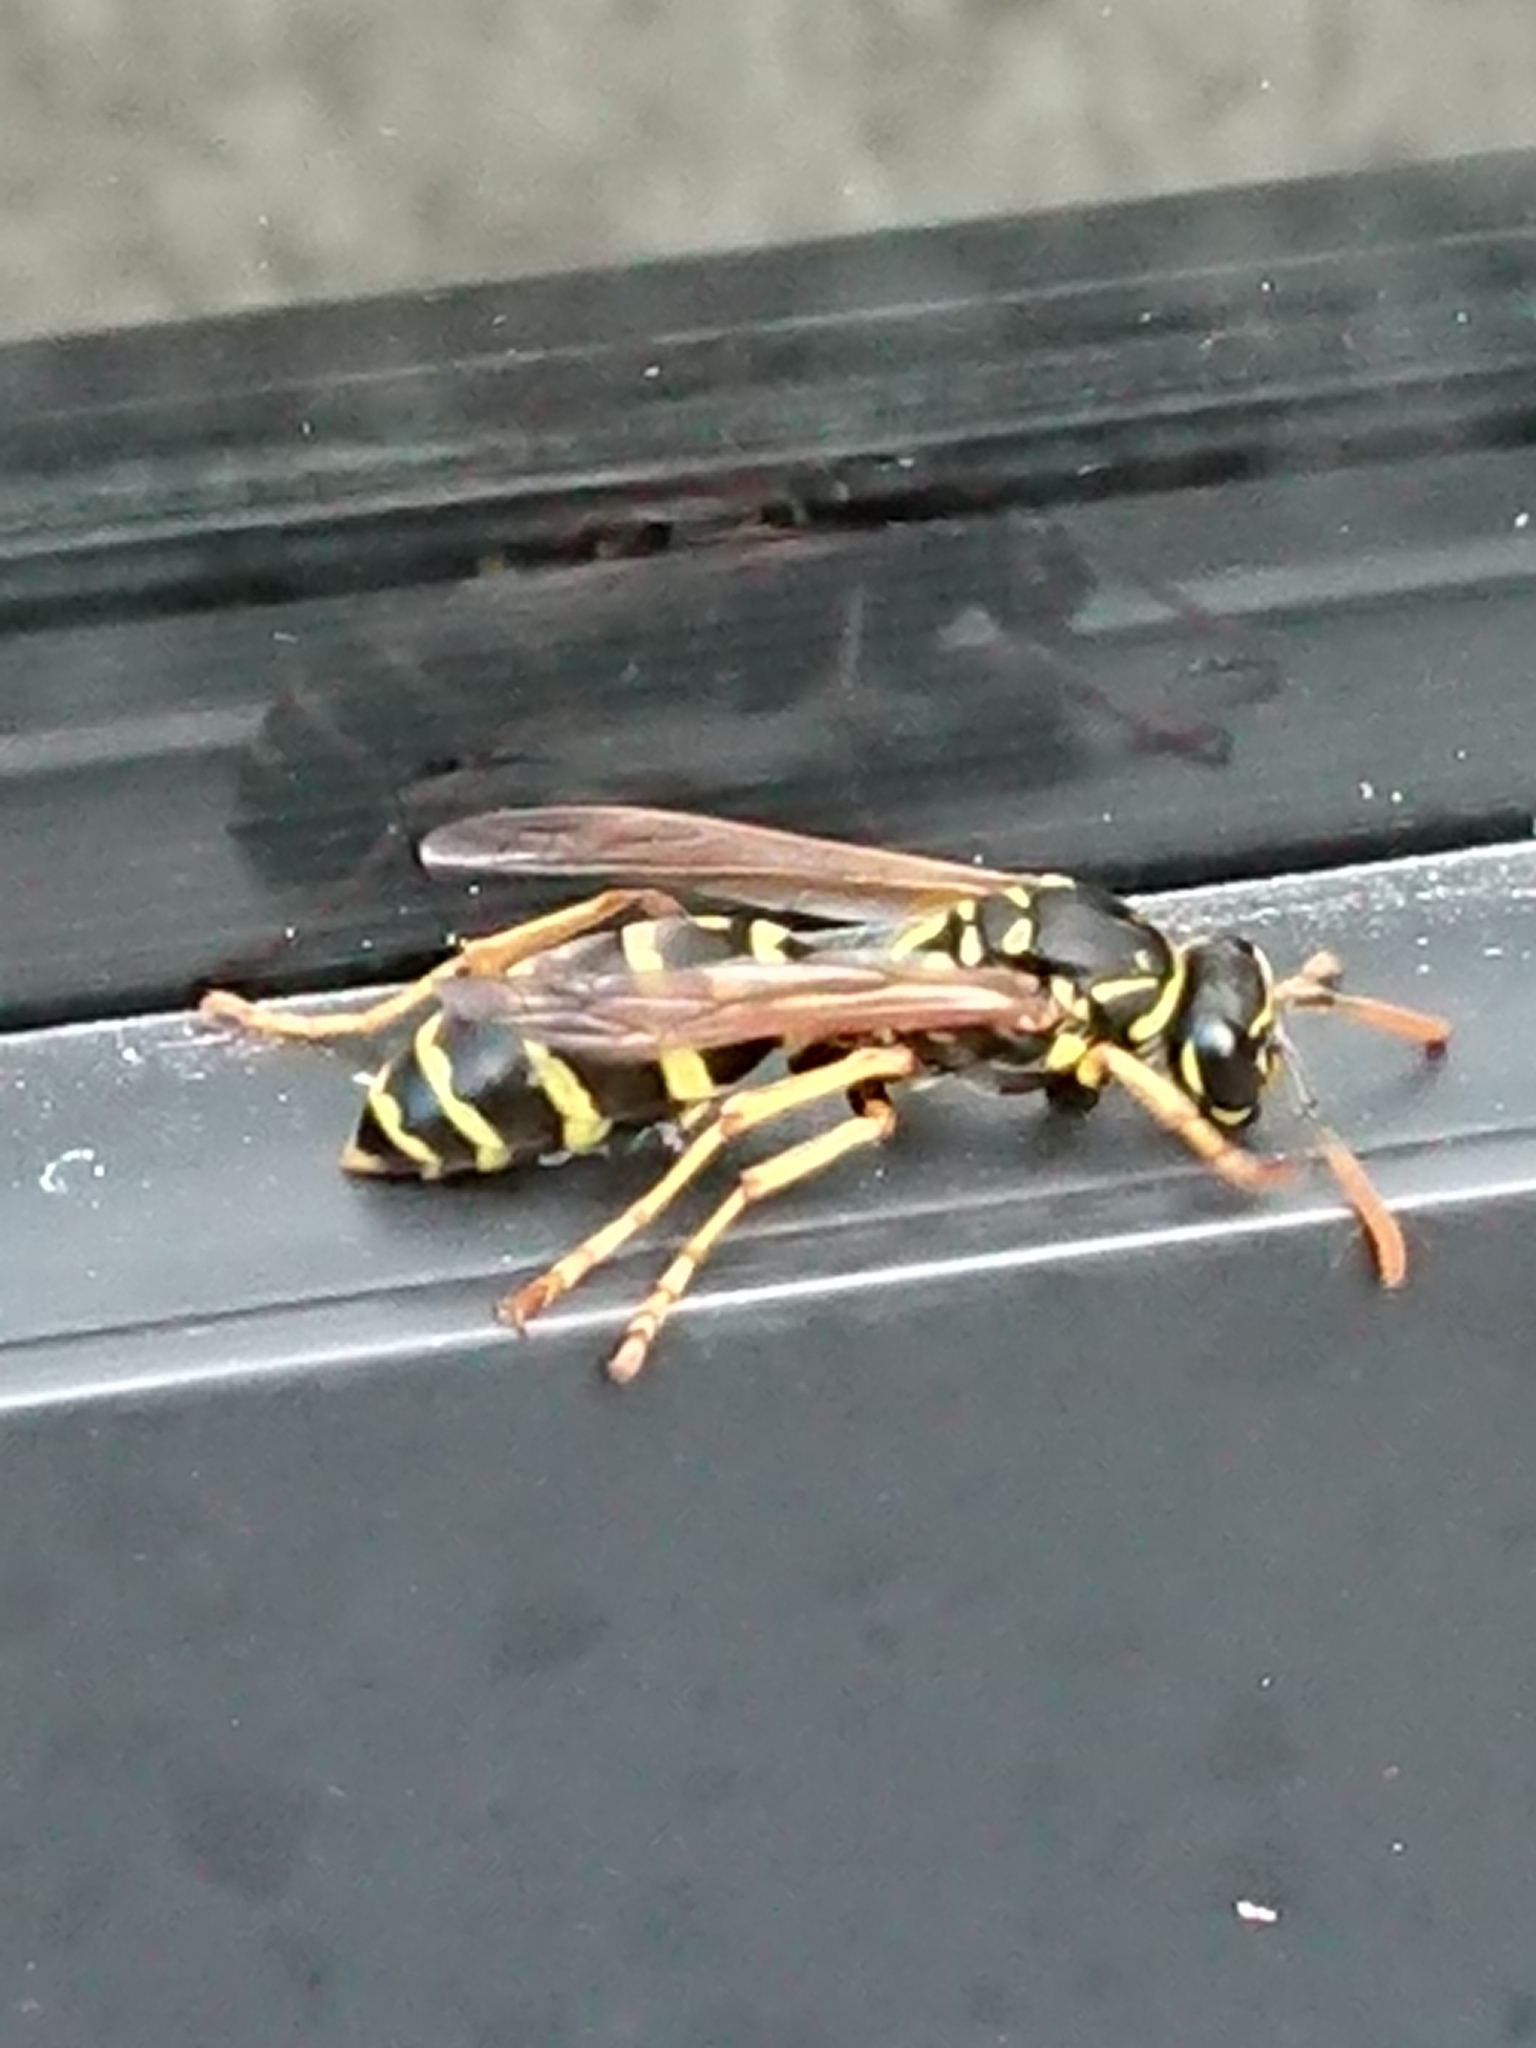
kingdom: Animalia
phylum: Arthropoda
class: Insecta
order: Hymenoptera
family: Eumenidae
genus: Polistes
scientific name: Polistes dominula
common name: Paper wasp
